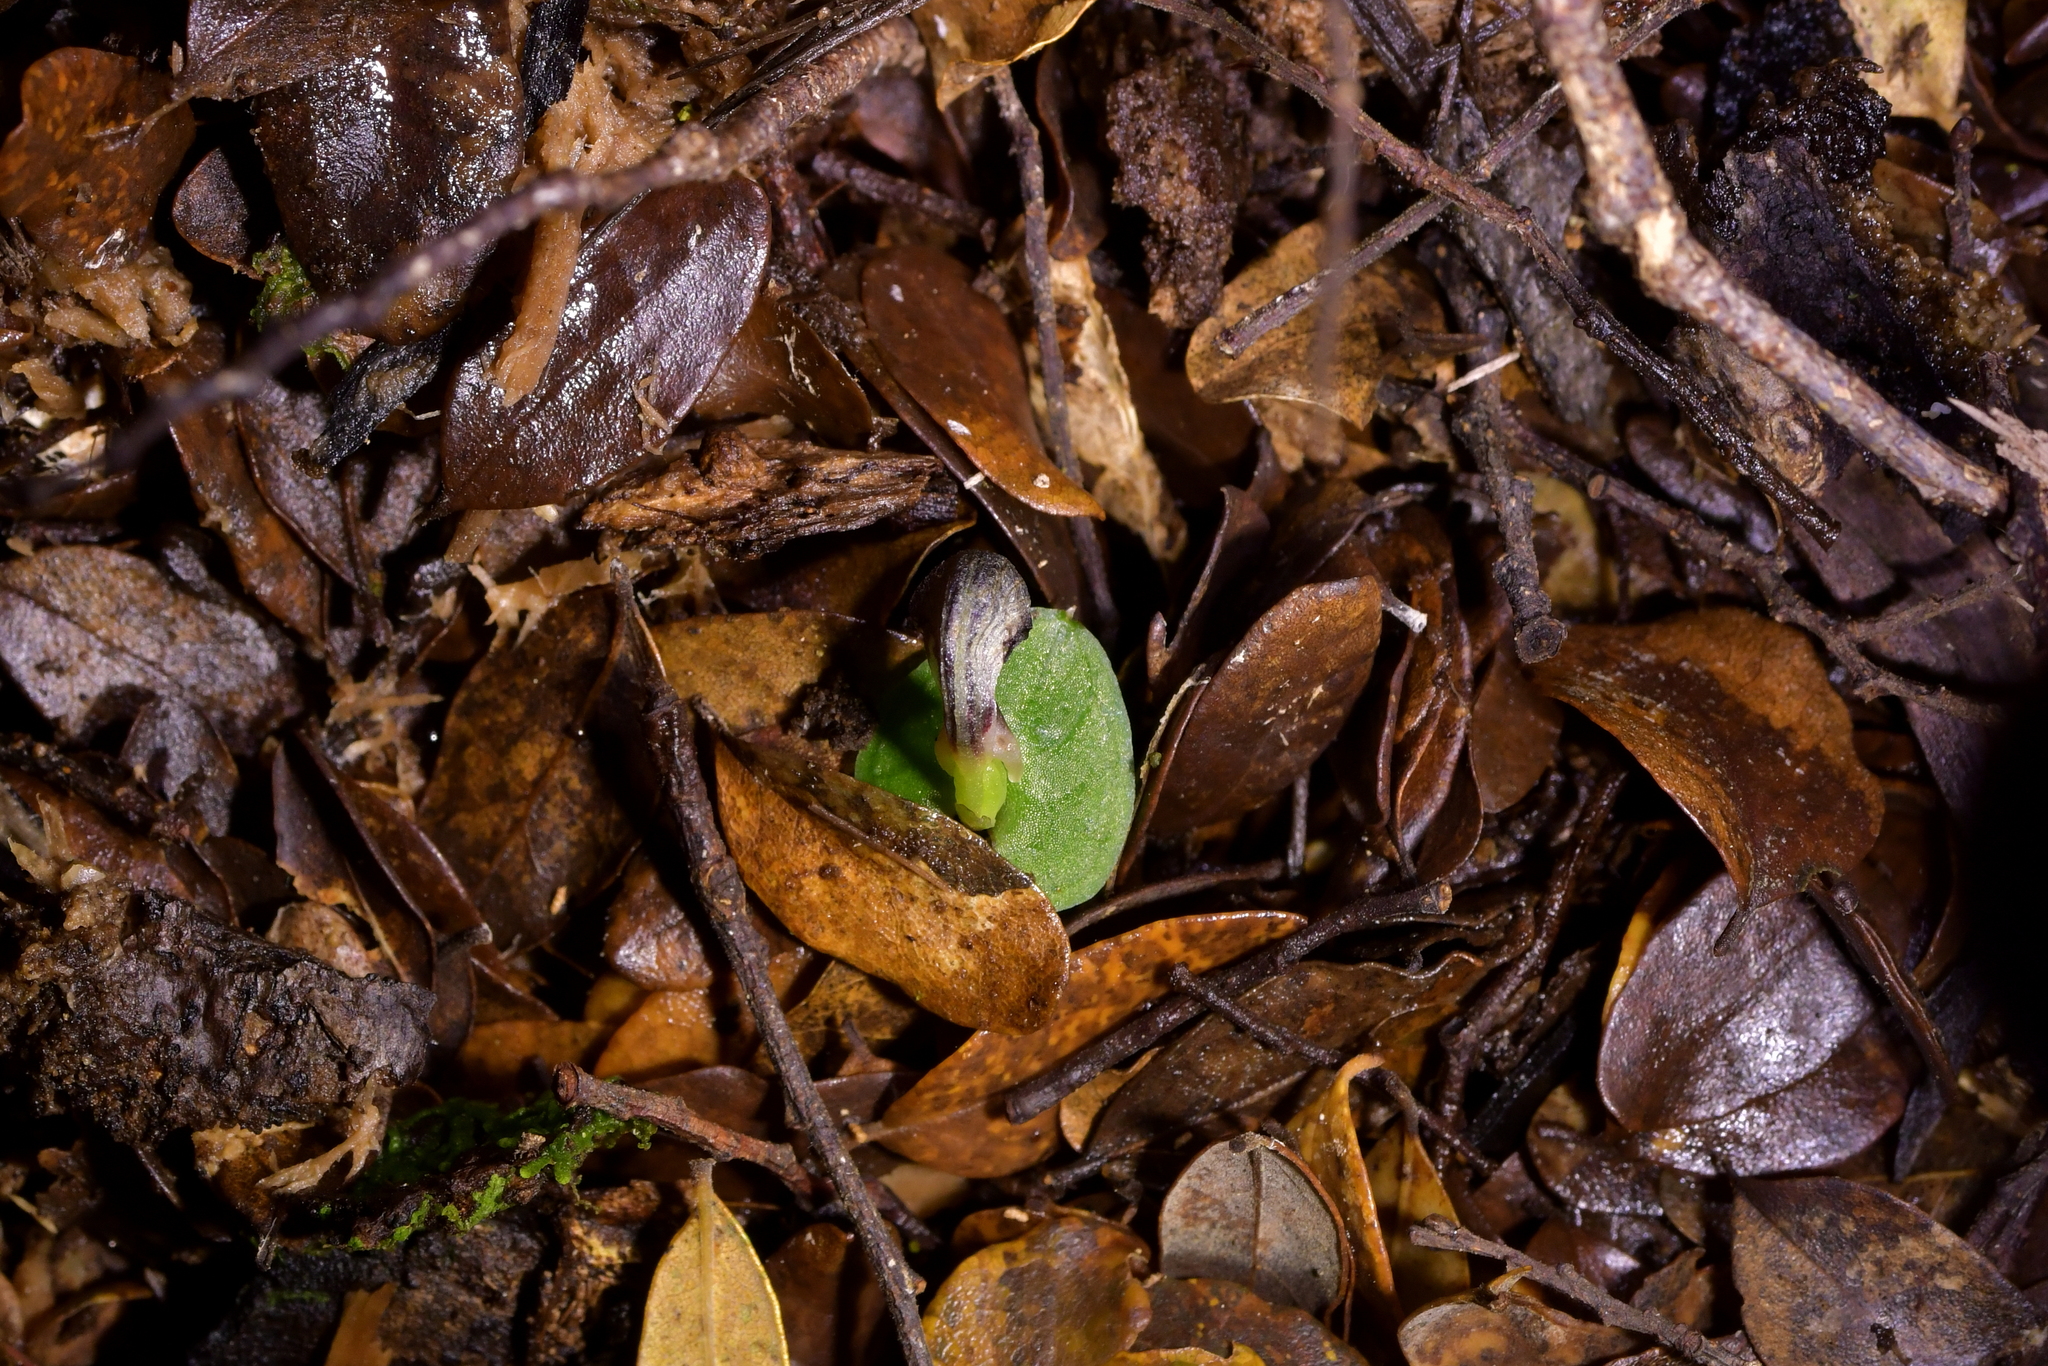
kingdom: Plantae
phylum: Tracheophyta
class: Liliopsida
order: Asparagales
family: Orchidaceae
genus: Corybas
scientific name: Corybas cheesemanii
